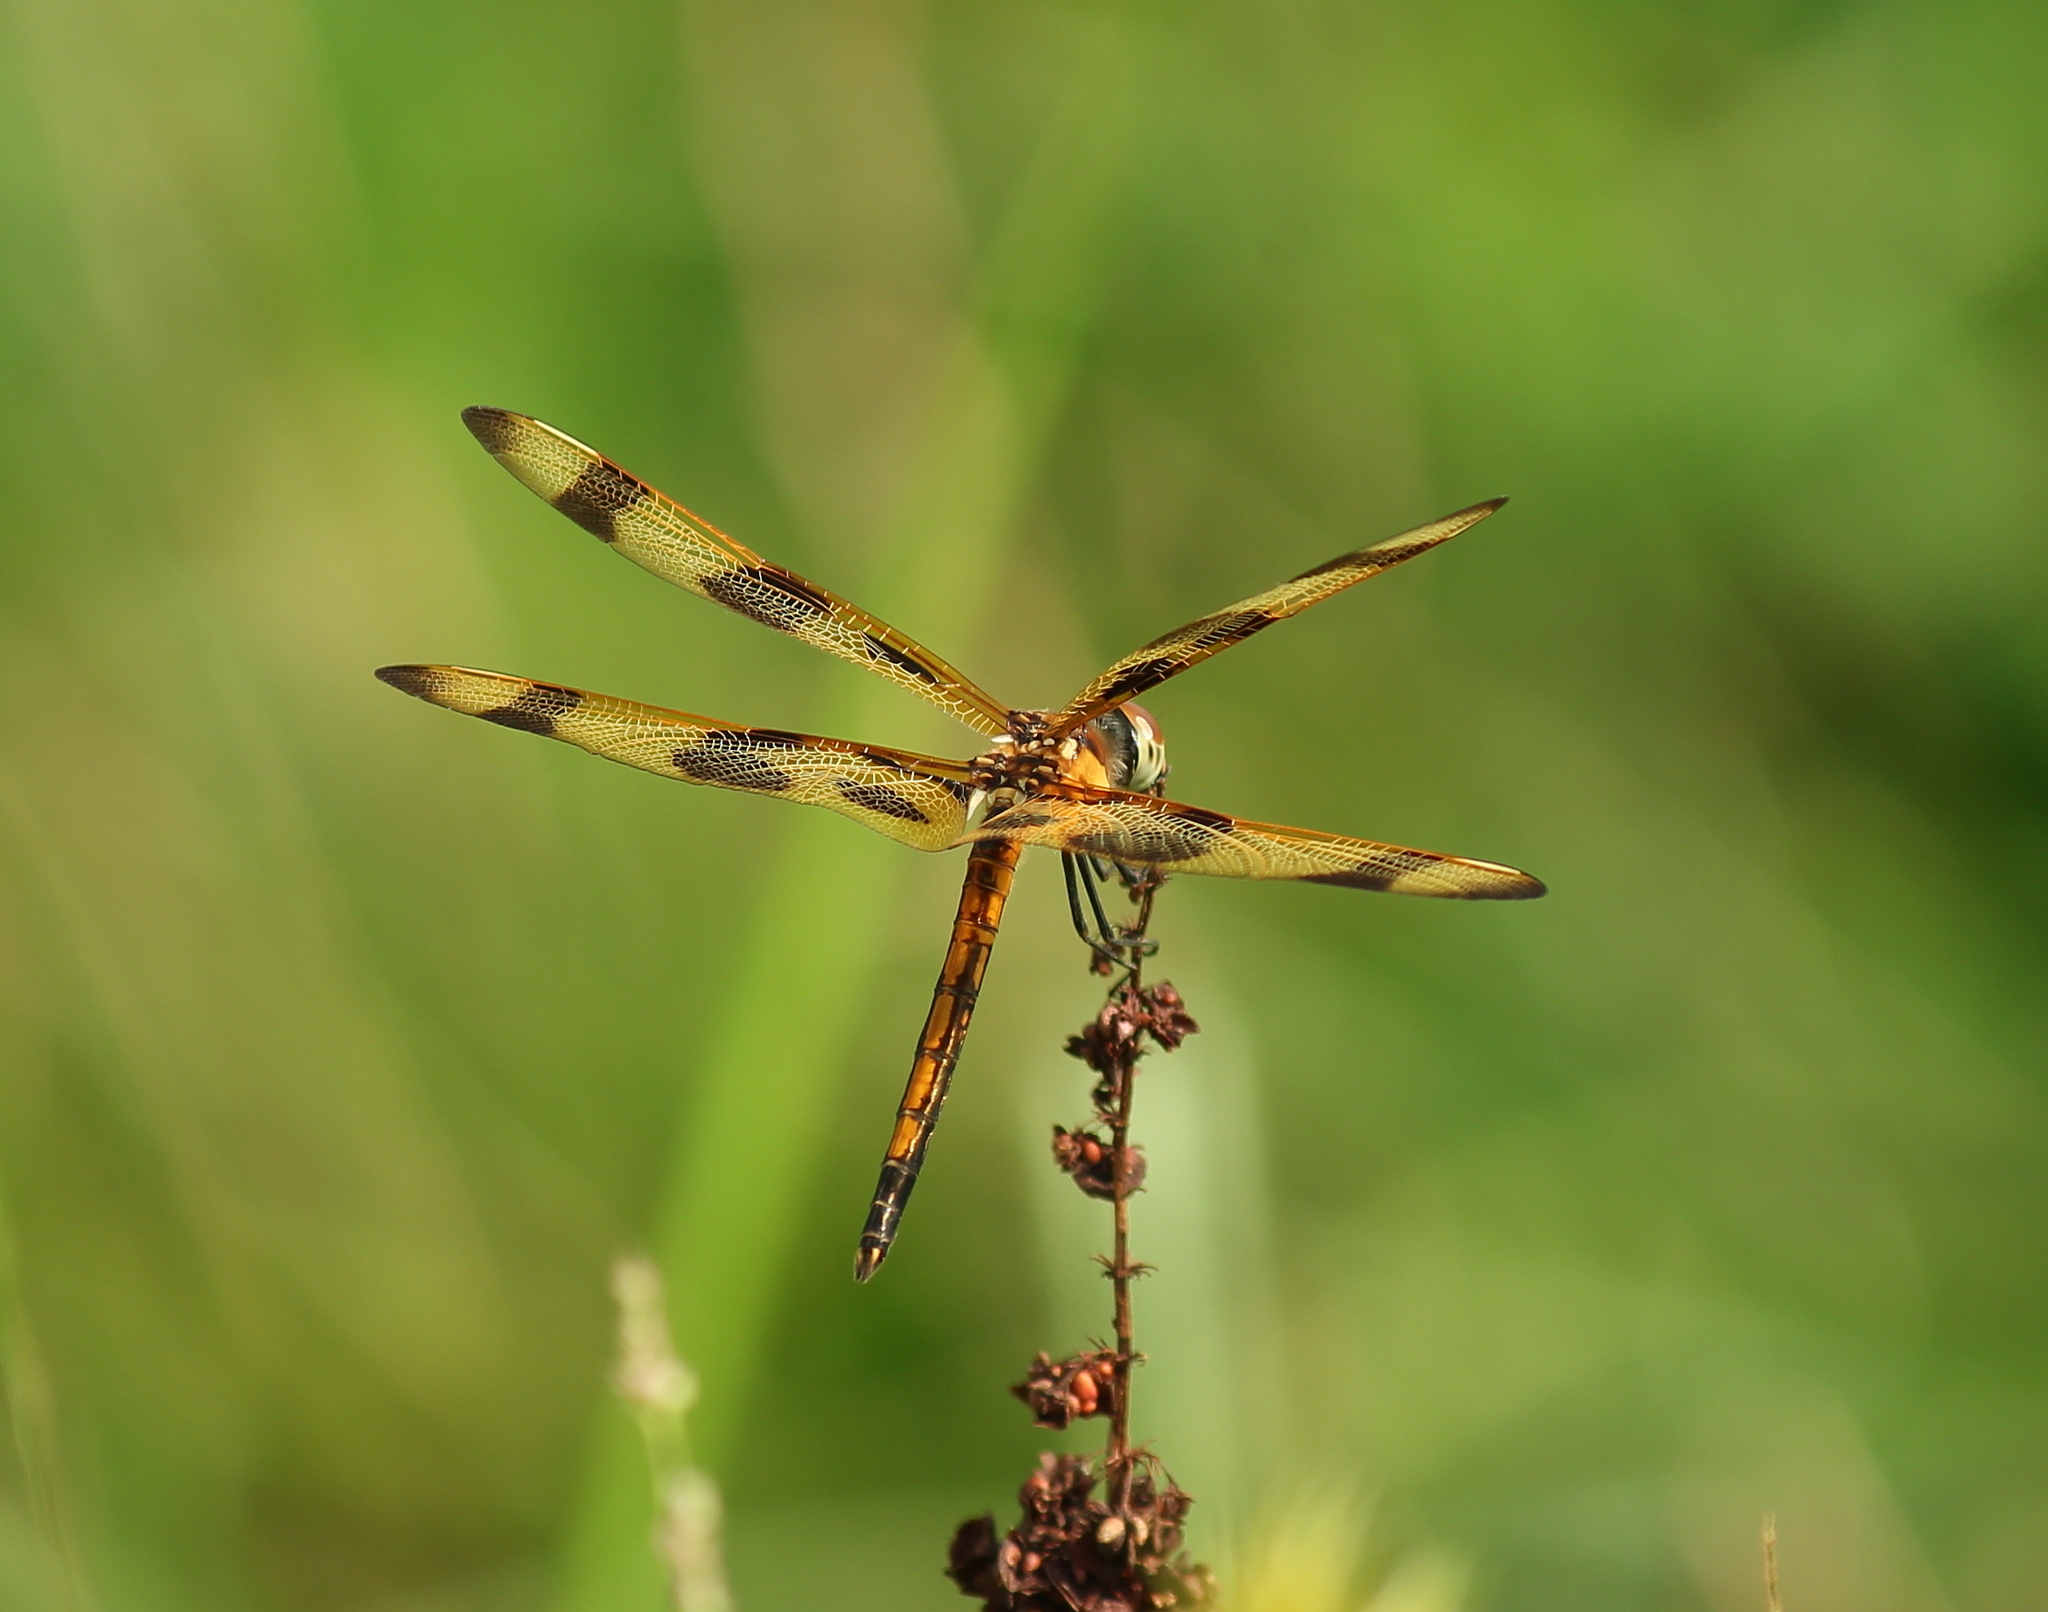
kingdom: Animalia
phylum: Arthropoda
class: Insecta
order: Odonata
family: Libellulidae
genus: Celithemis
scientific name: Celithemis eponina
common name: Halloween pennant
